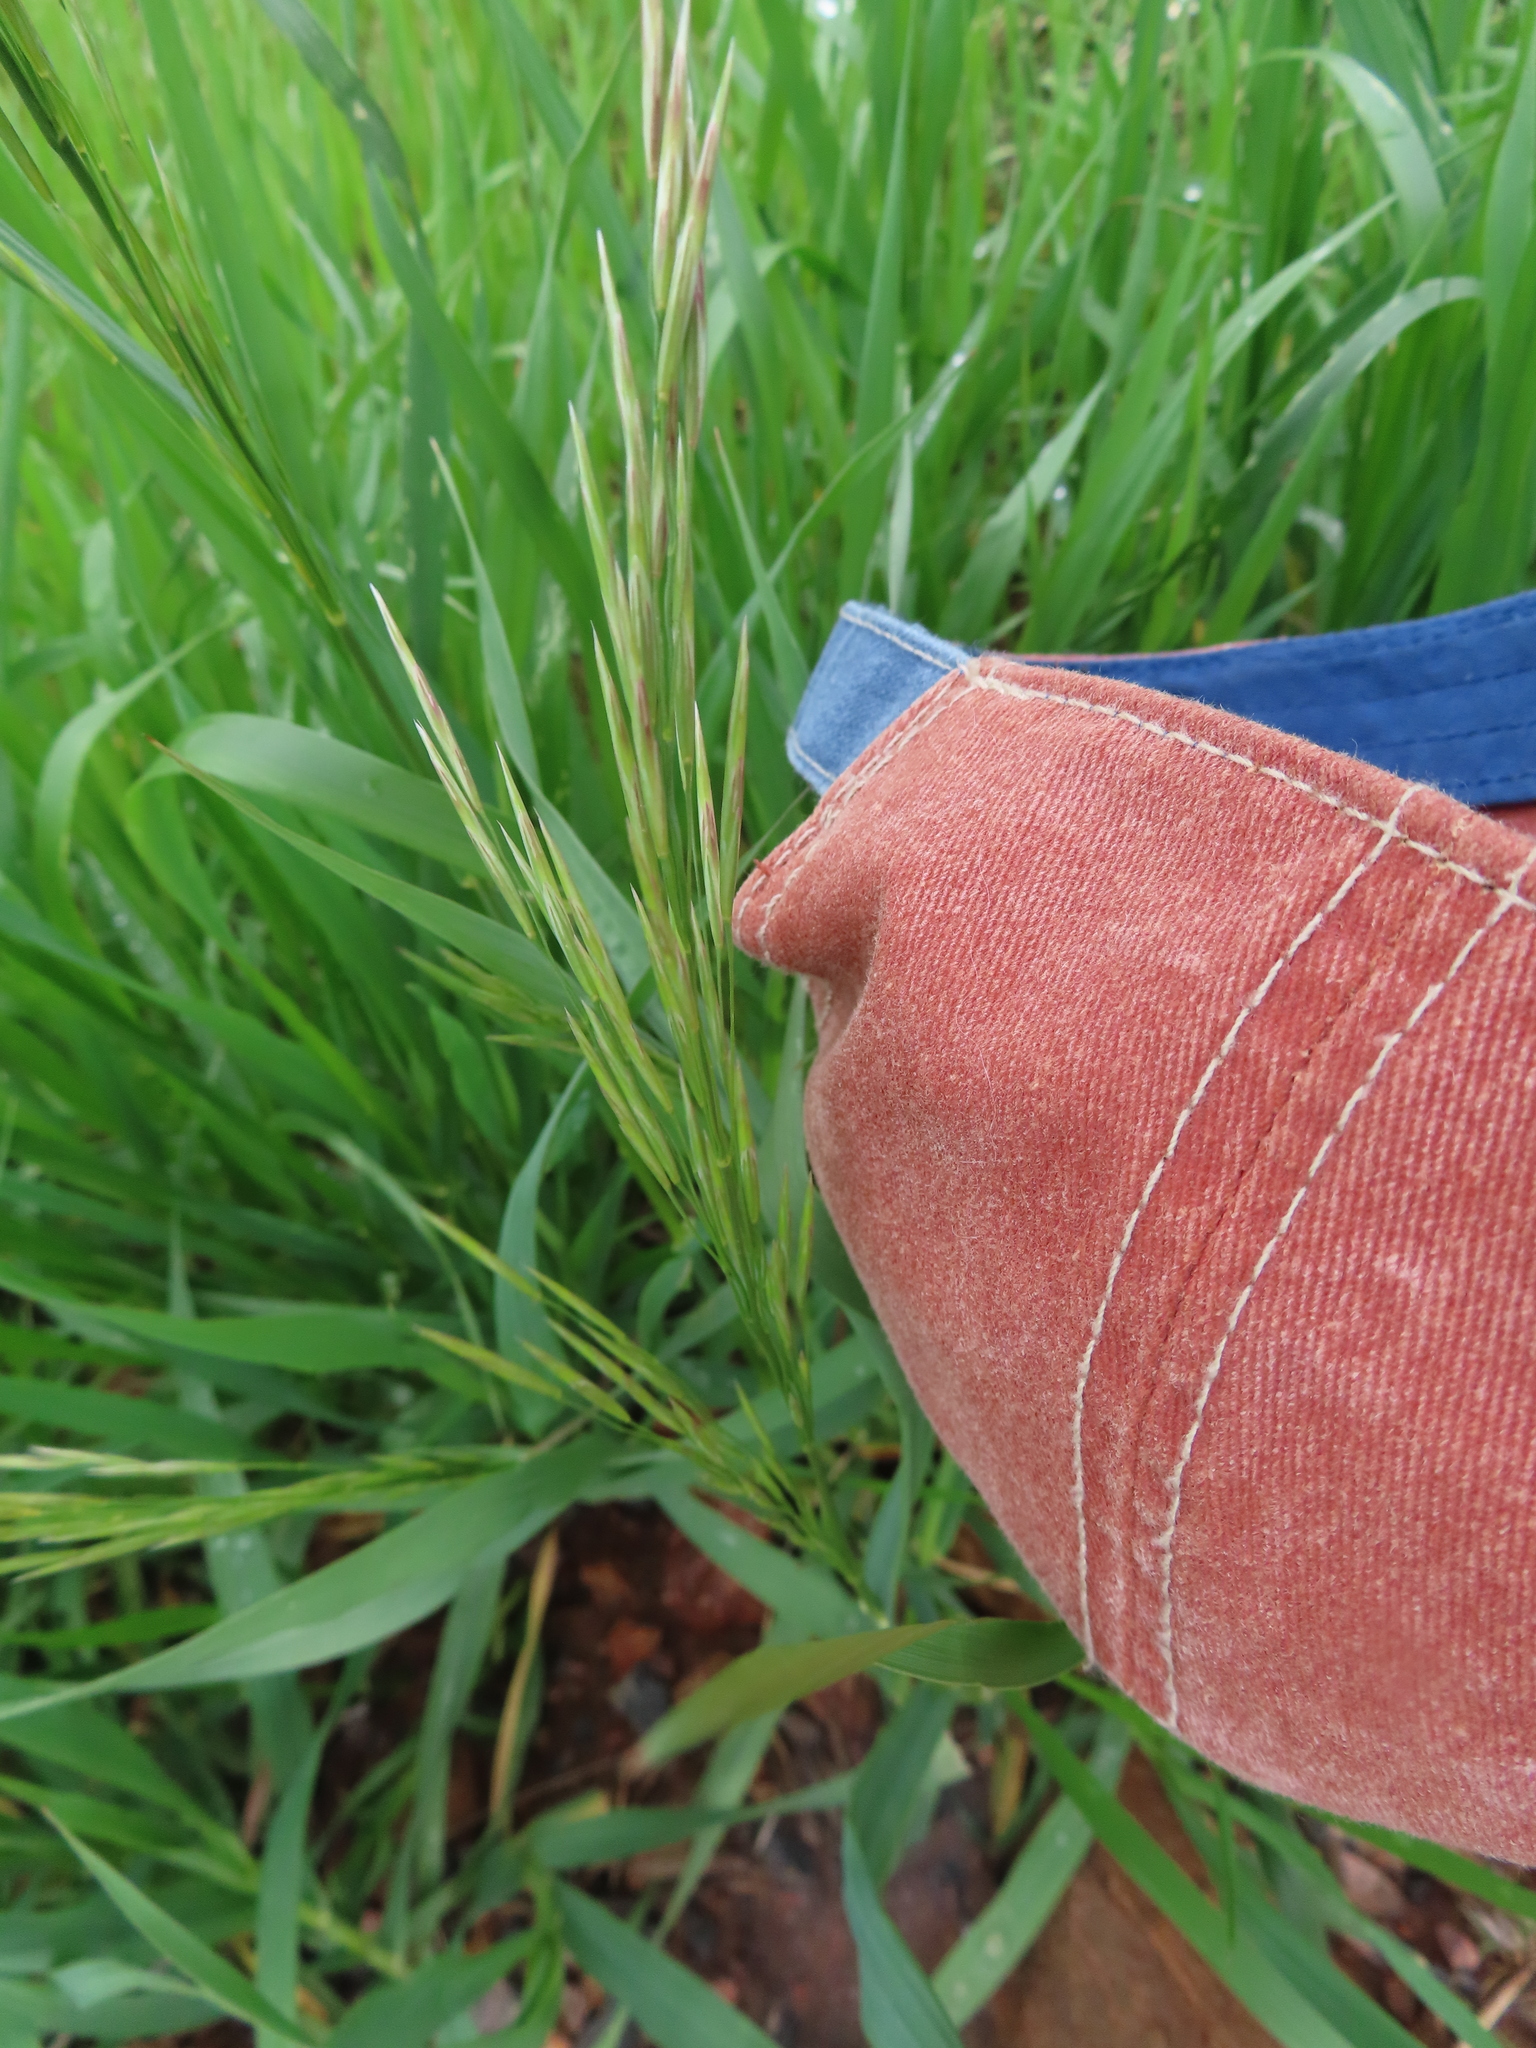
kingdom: Plantae
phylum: Tracheophyta
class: Liliopsida
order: Poales
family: Poaceae
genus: Bromus
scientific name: Bromus inermis
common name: Smooth brome
